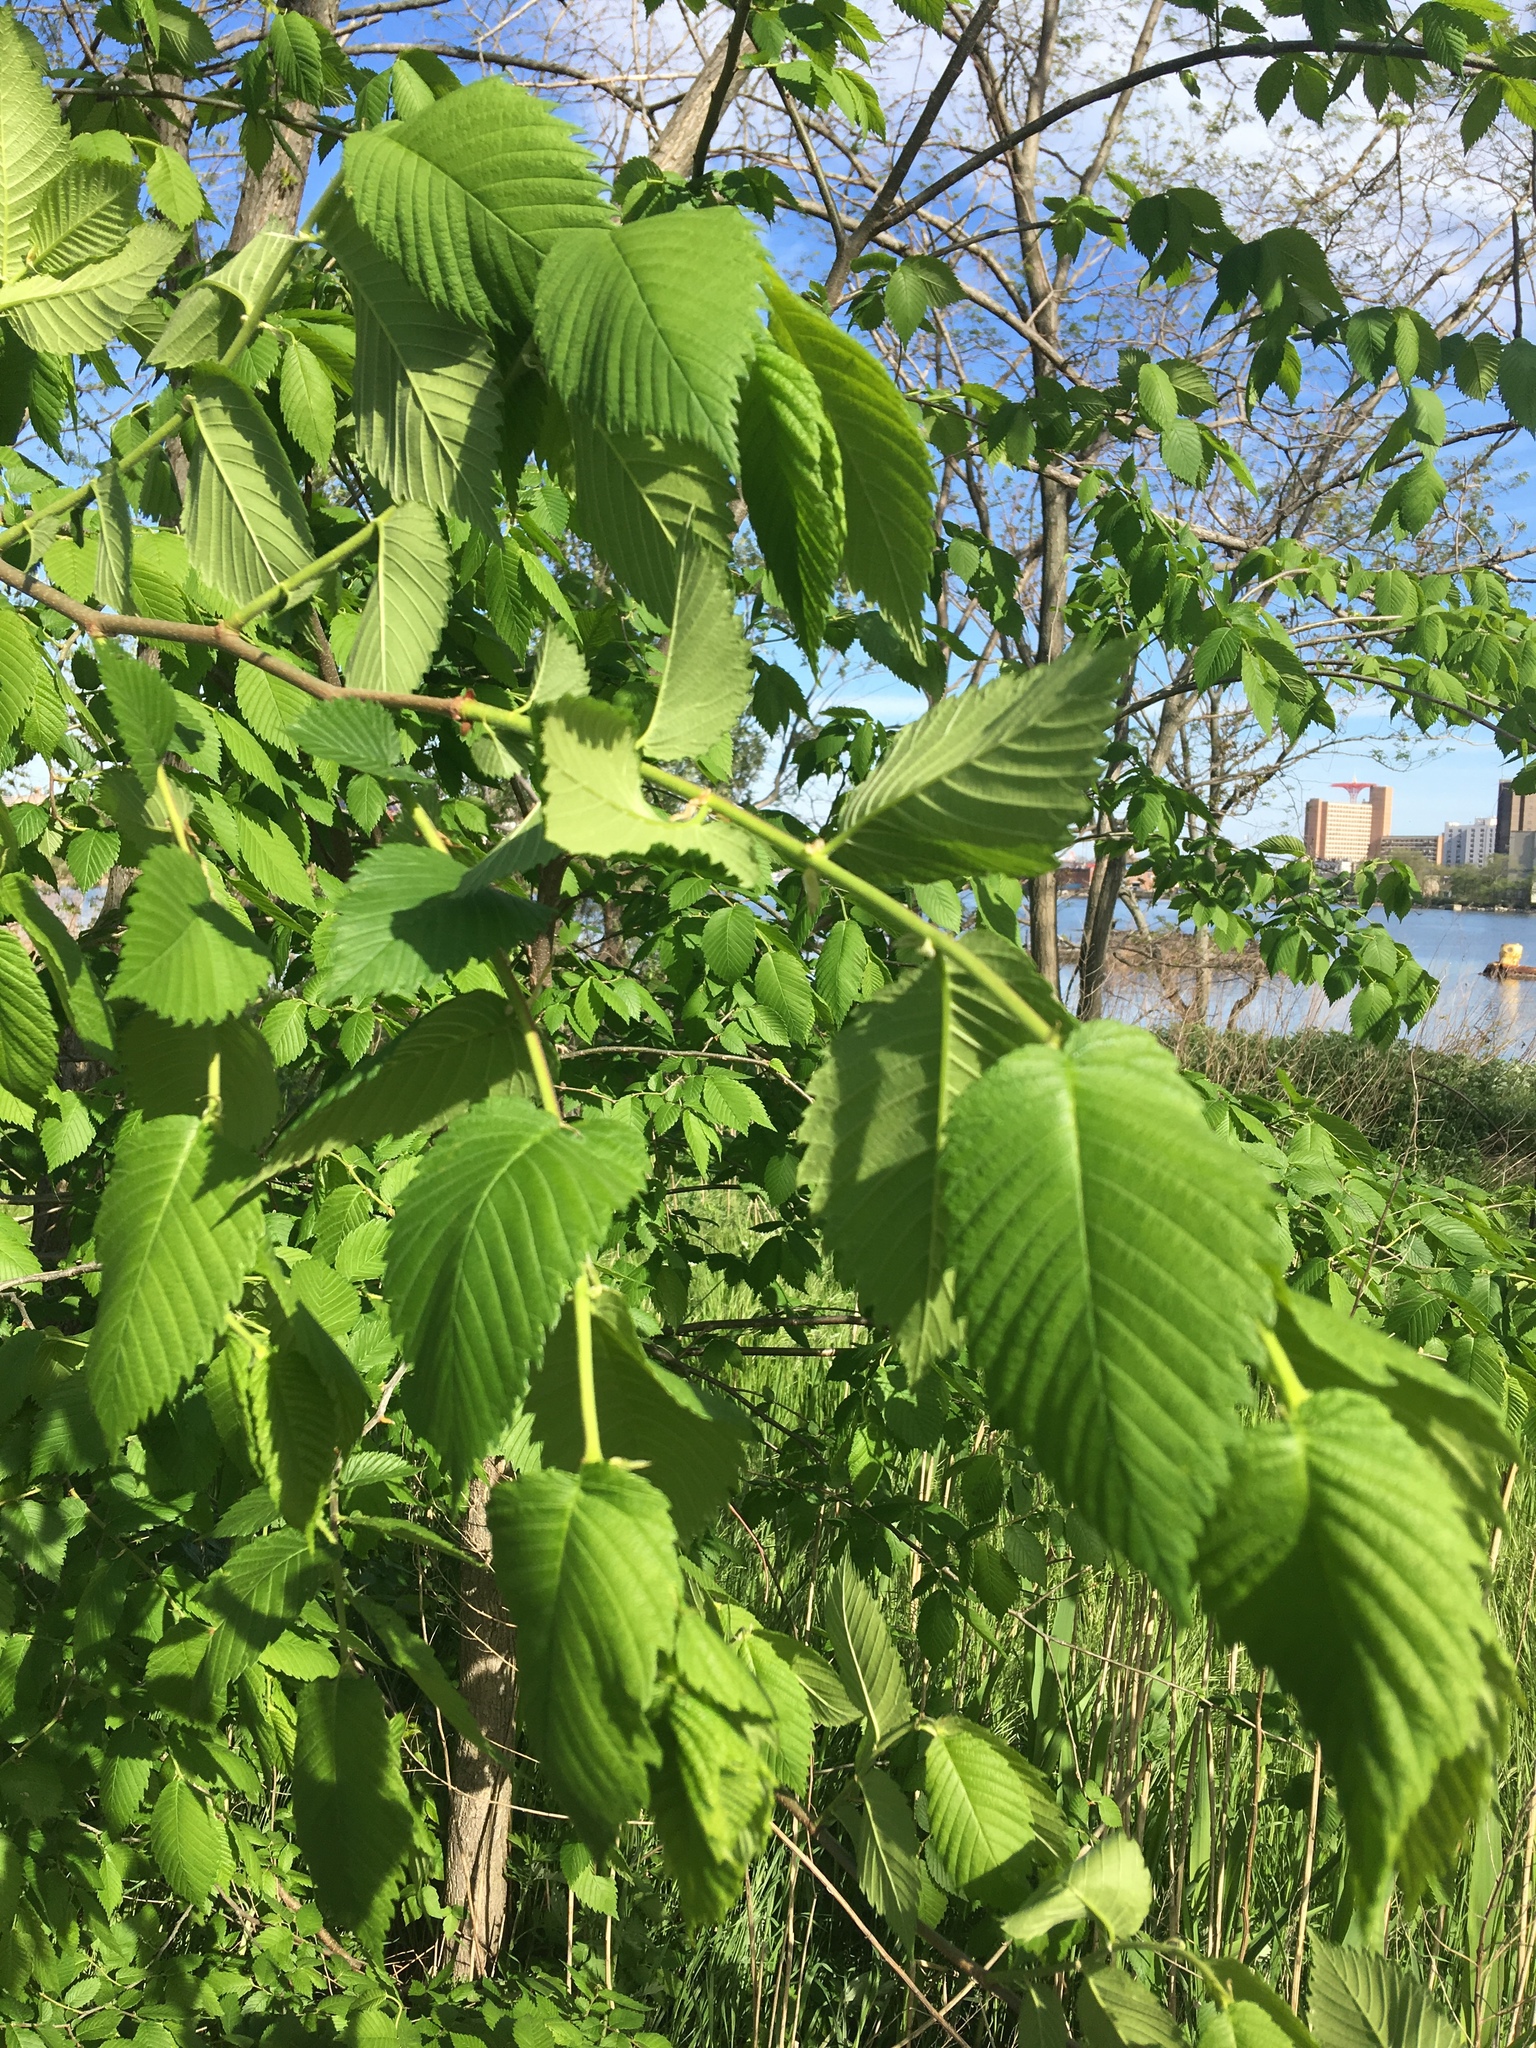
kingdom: Plantae
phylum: Tracheophyta
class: Magnoliopsida
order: Rosales
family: Ulmaceae
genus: Ulmus
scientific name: Ulmus americana
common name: American elm
